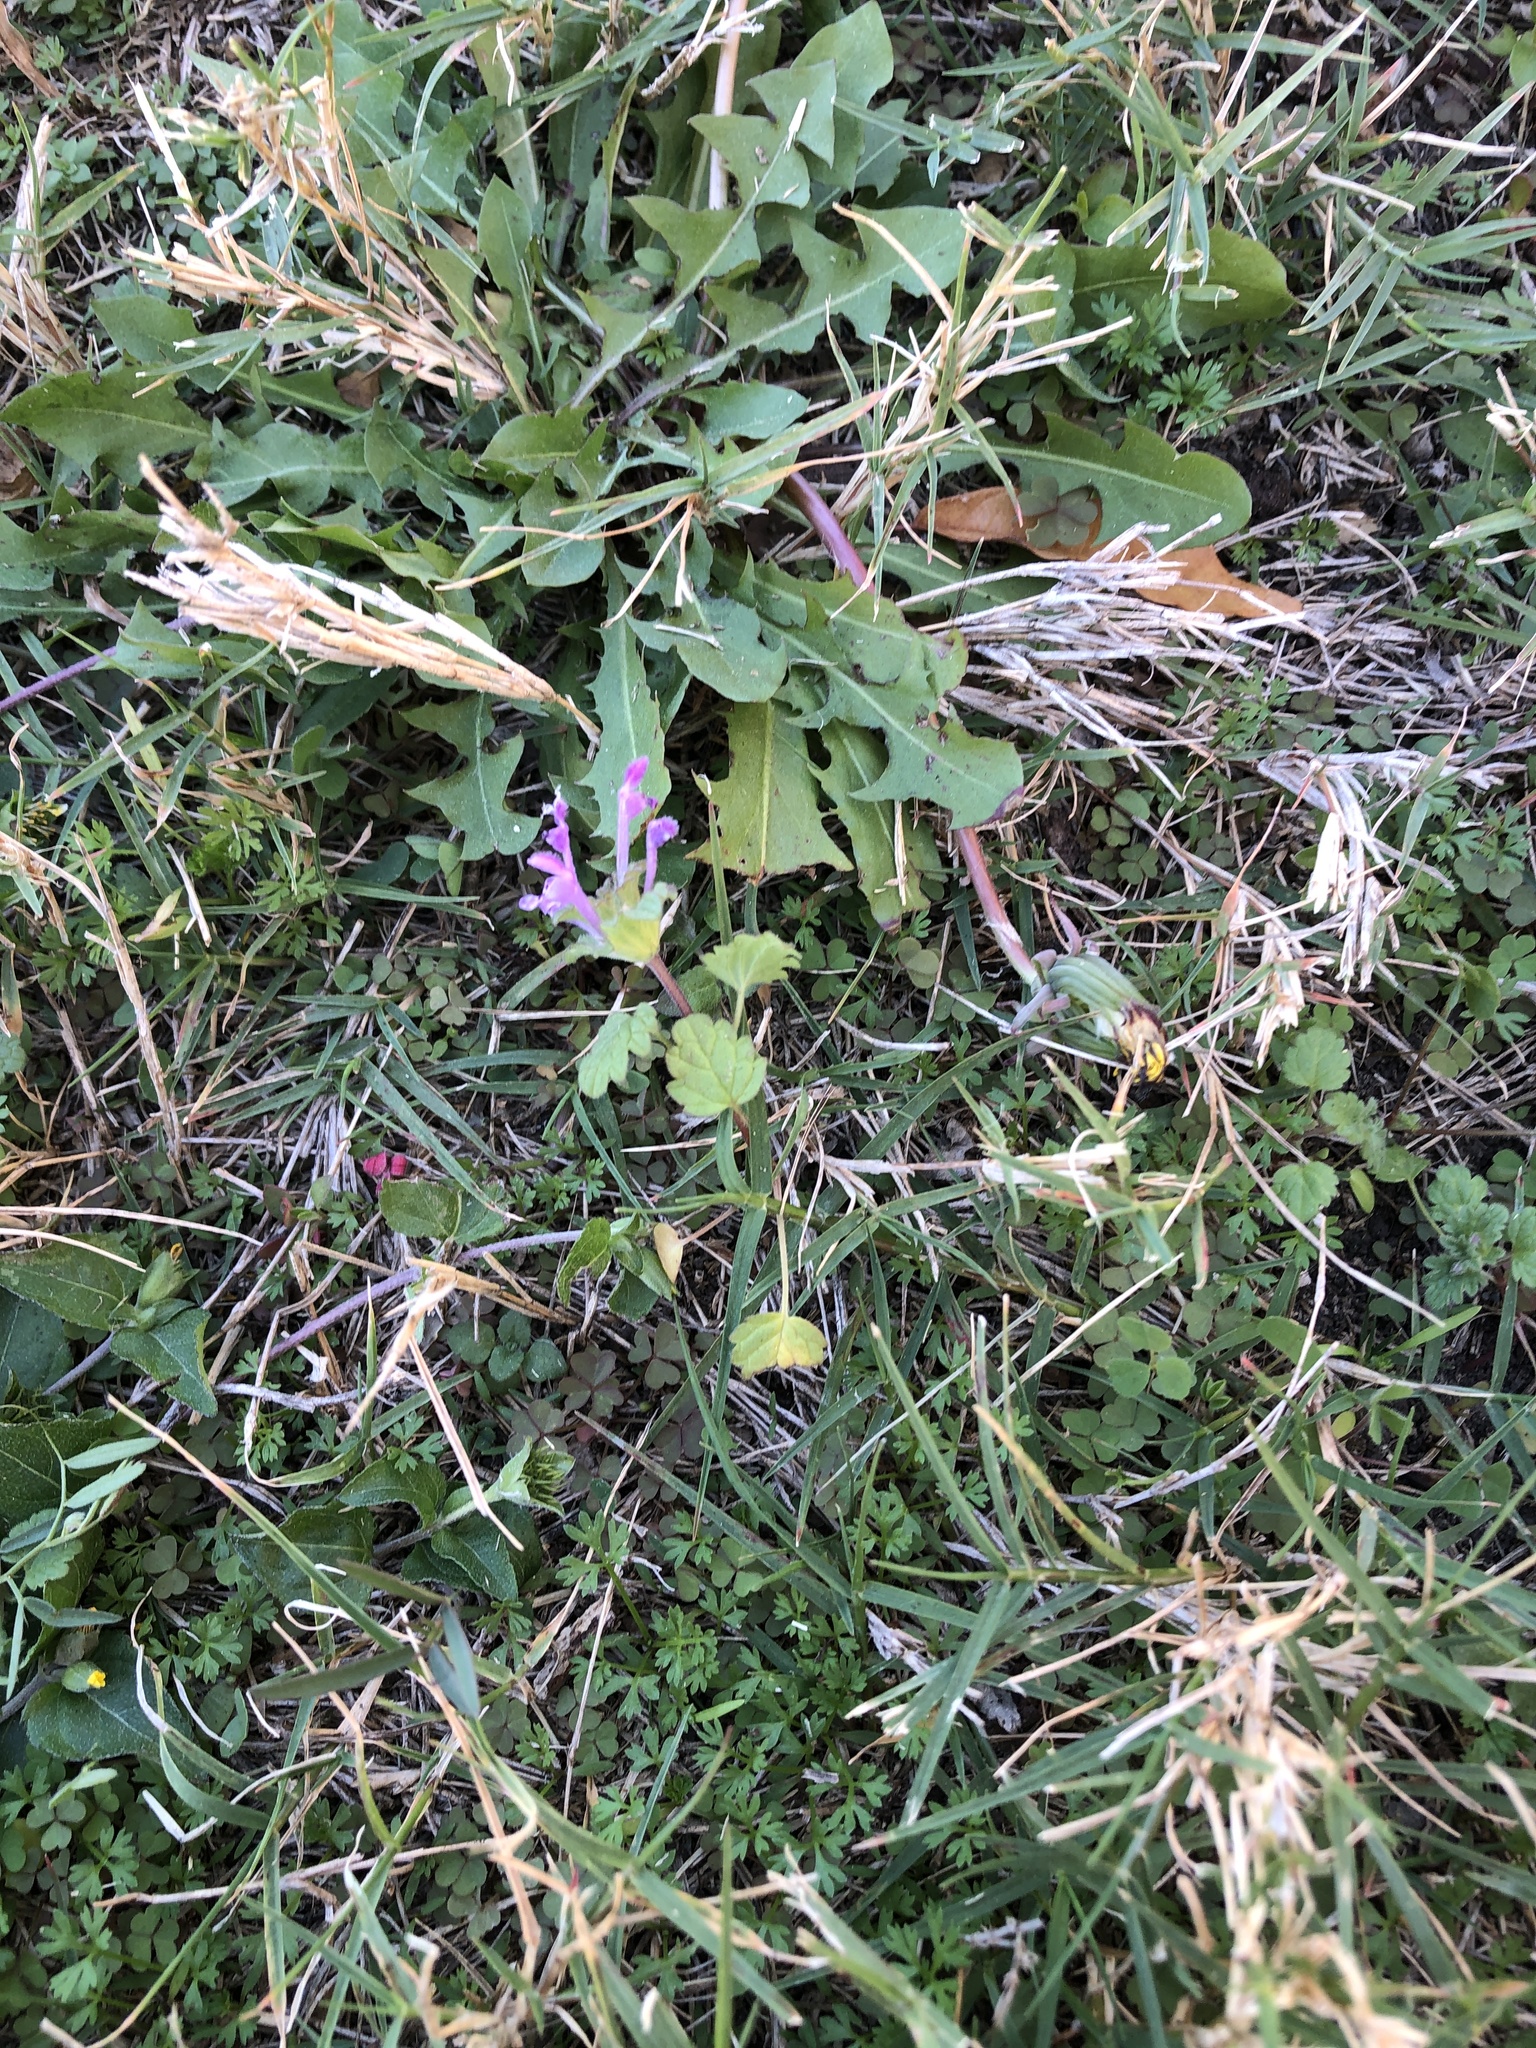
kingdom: Plantae
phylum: Tracheophyta
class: Magnoliopsida
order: Lamiales
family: Lamiaceae
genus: Lamium
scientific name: Lamium amplexicaule
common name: Henbit dead-nettle
